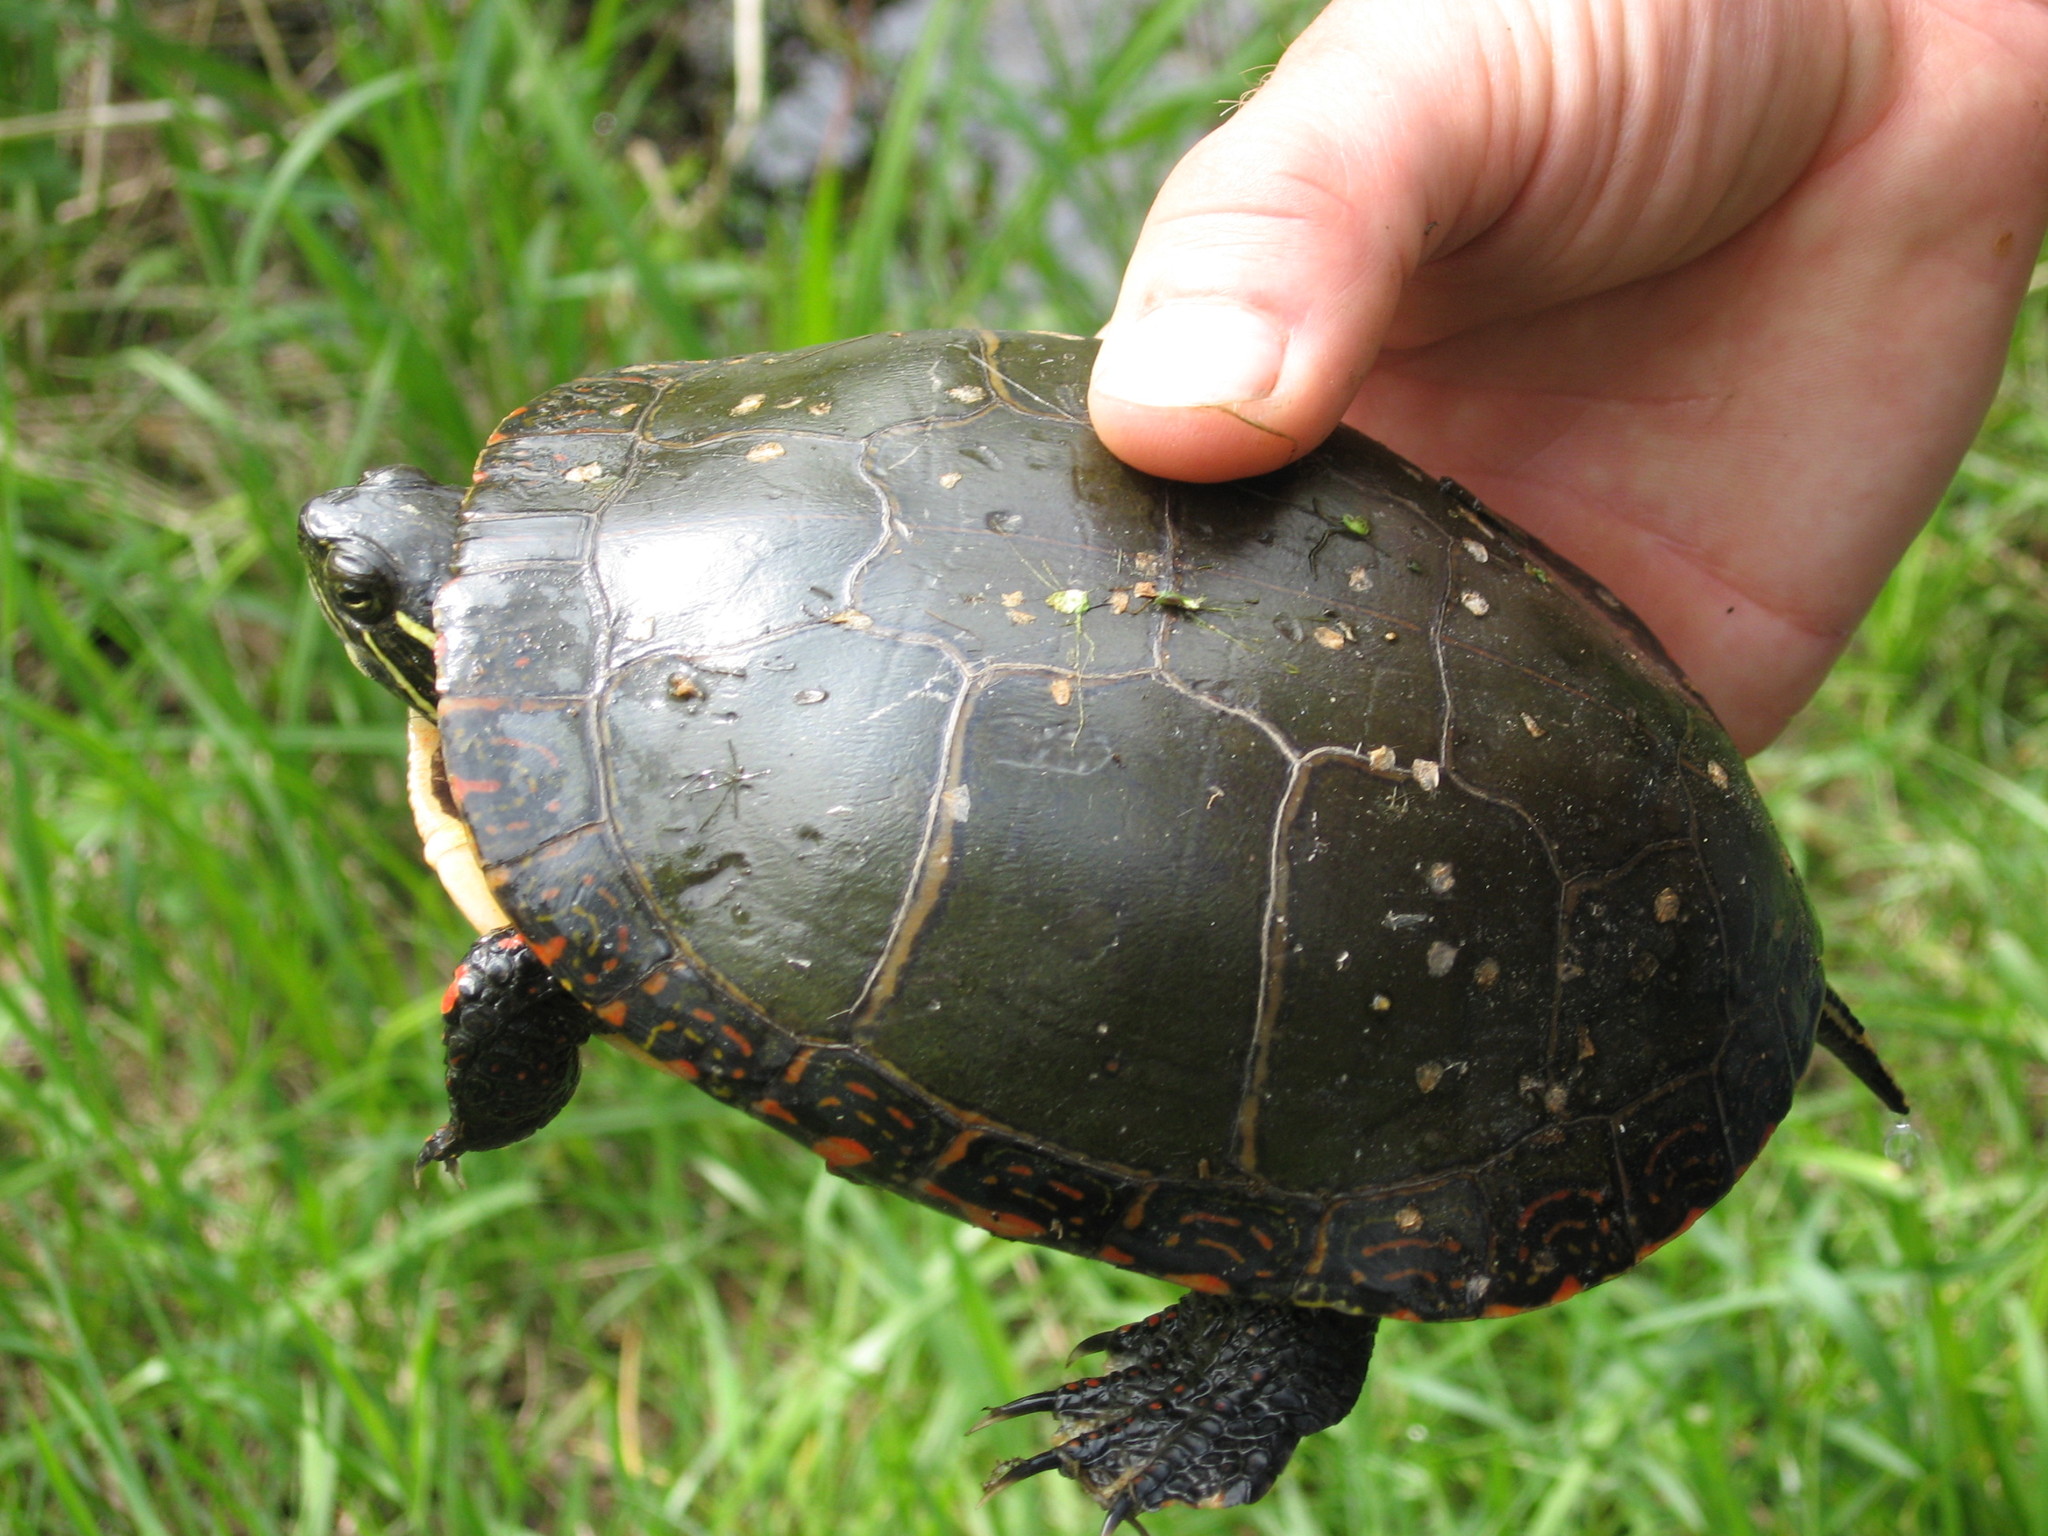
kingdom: Animalia
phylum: Chordata
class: Testudines
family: Emydidae
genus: Chrysemys
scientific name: Chrysemys picta
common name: Painted turtle
